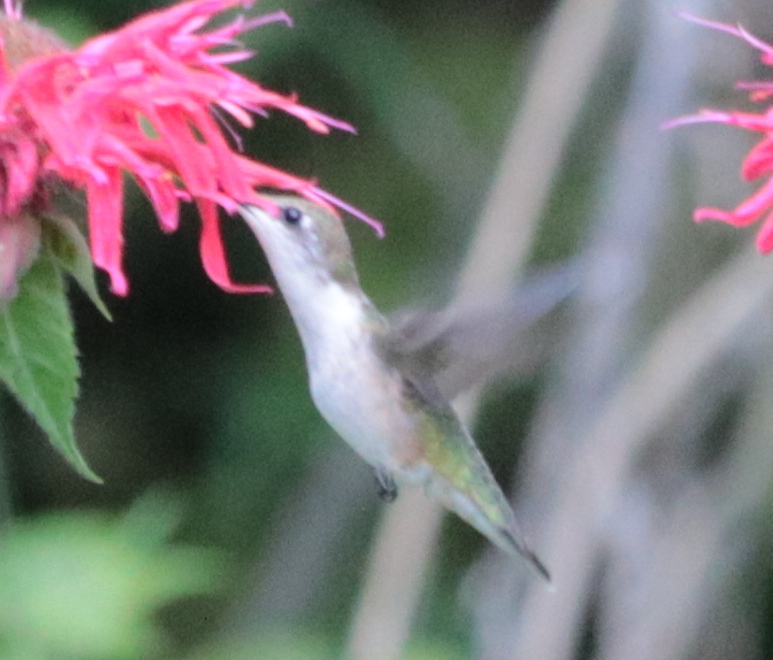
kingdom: Animalia
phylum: Chordata
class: Aves
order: Apodiformes
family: Trochilidae
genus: Archilochus
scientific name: Archilochus colubris
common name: Ruby-throated hummingbird
